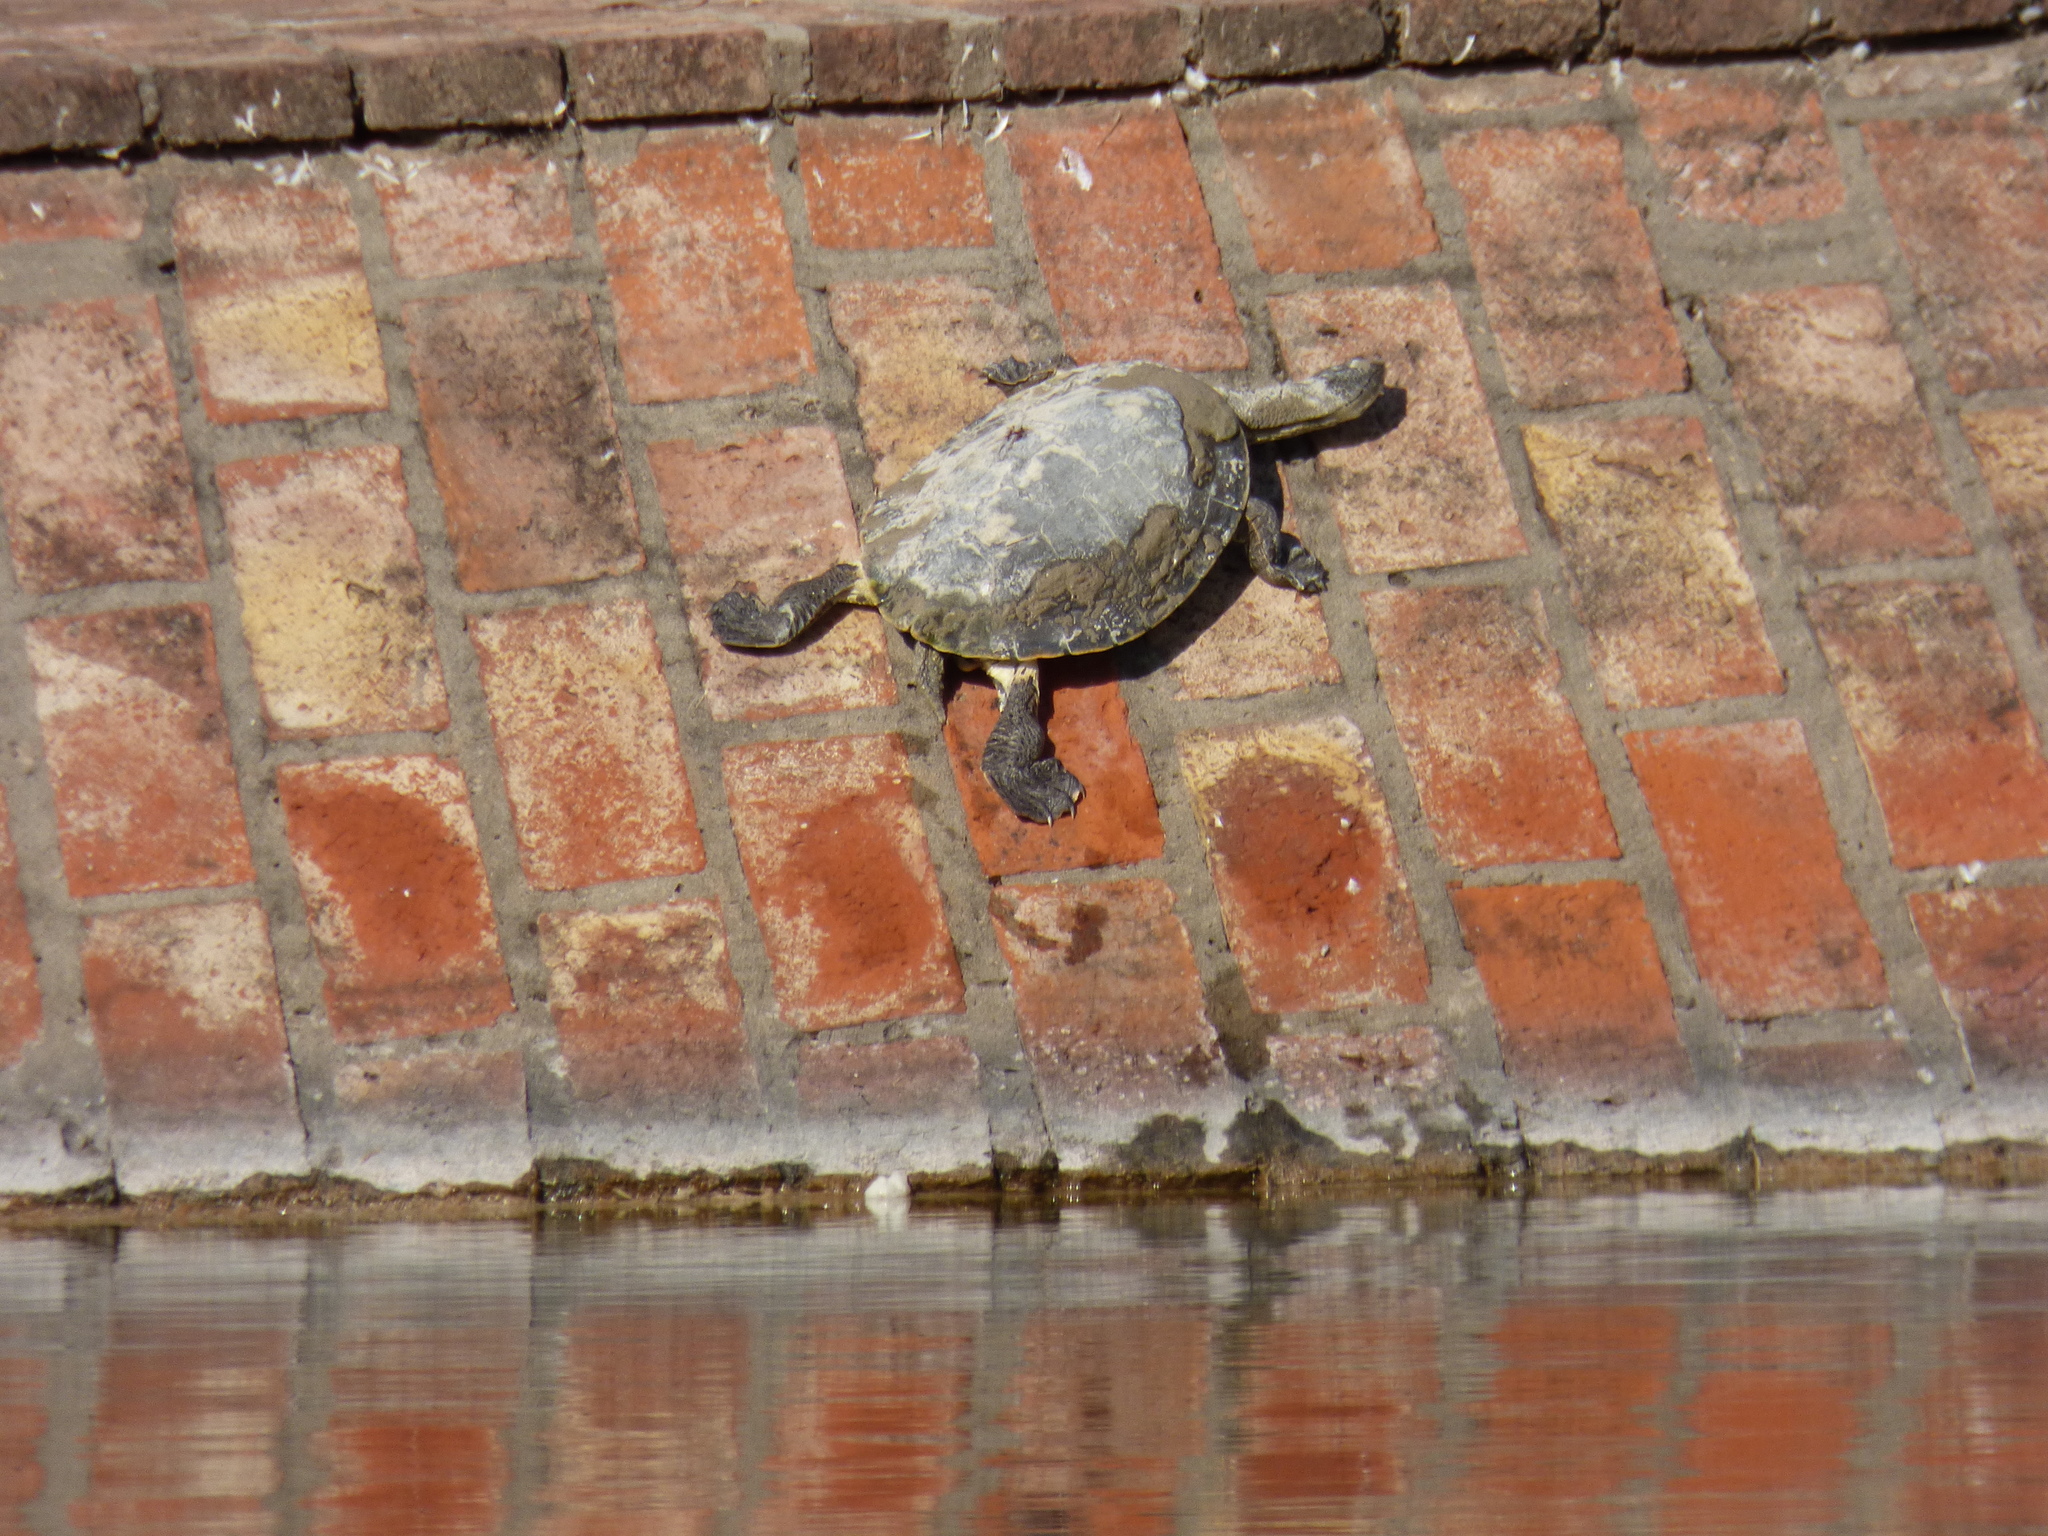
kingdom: Animalia
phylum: Chordata
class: Testudines
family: Chelidae
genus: Phrynops
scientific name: Phrynops hilarii
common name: Side-necked turtle of saint hillaire
